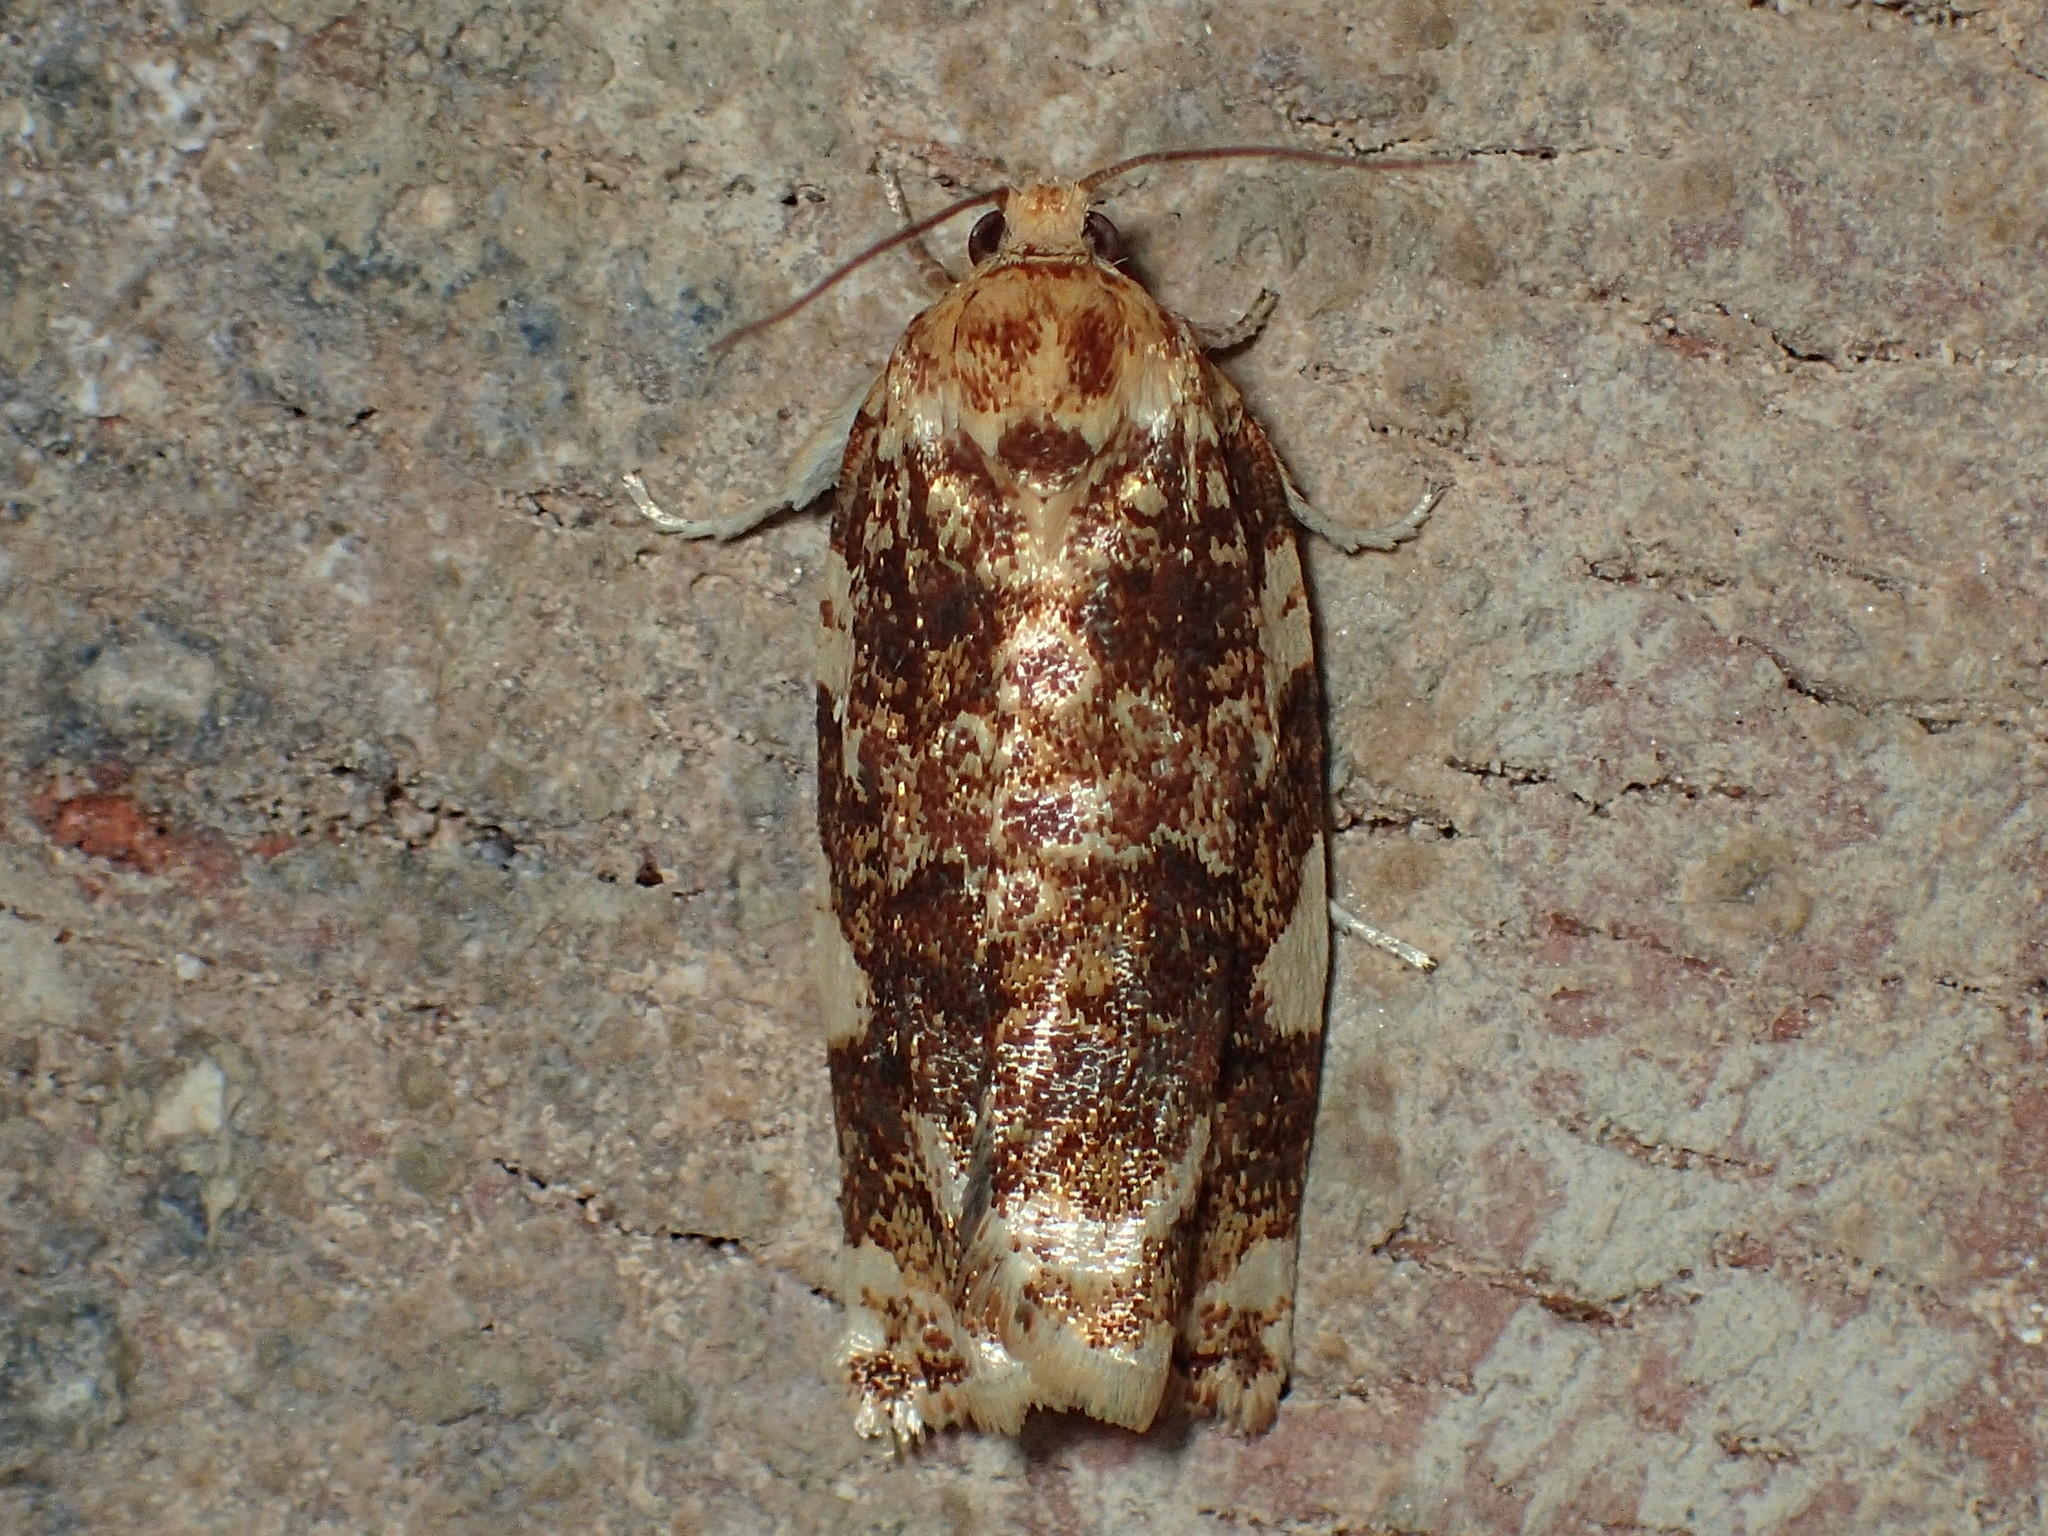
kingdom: Animalia
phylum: Arthropoda
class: Insecta
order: Lepidoptera
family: Tortricidae
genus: Archips
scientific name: Archips argyrospila
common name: Fruit-tree leafroller moth
